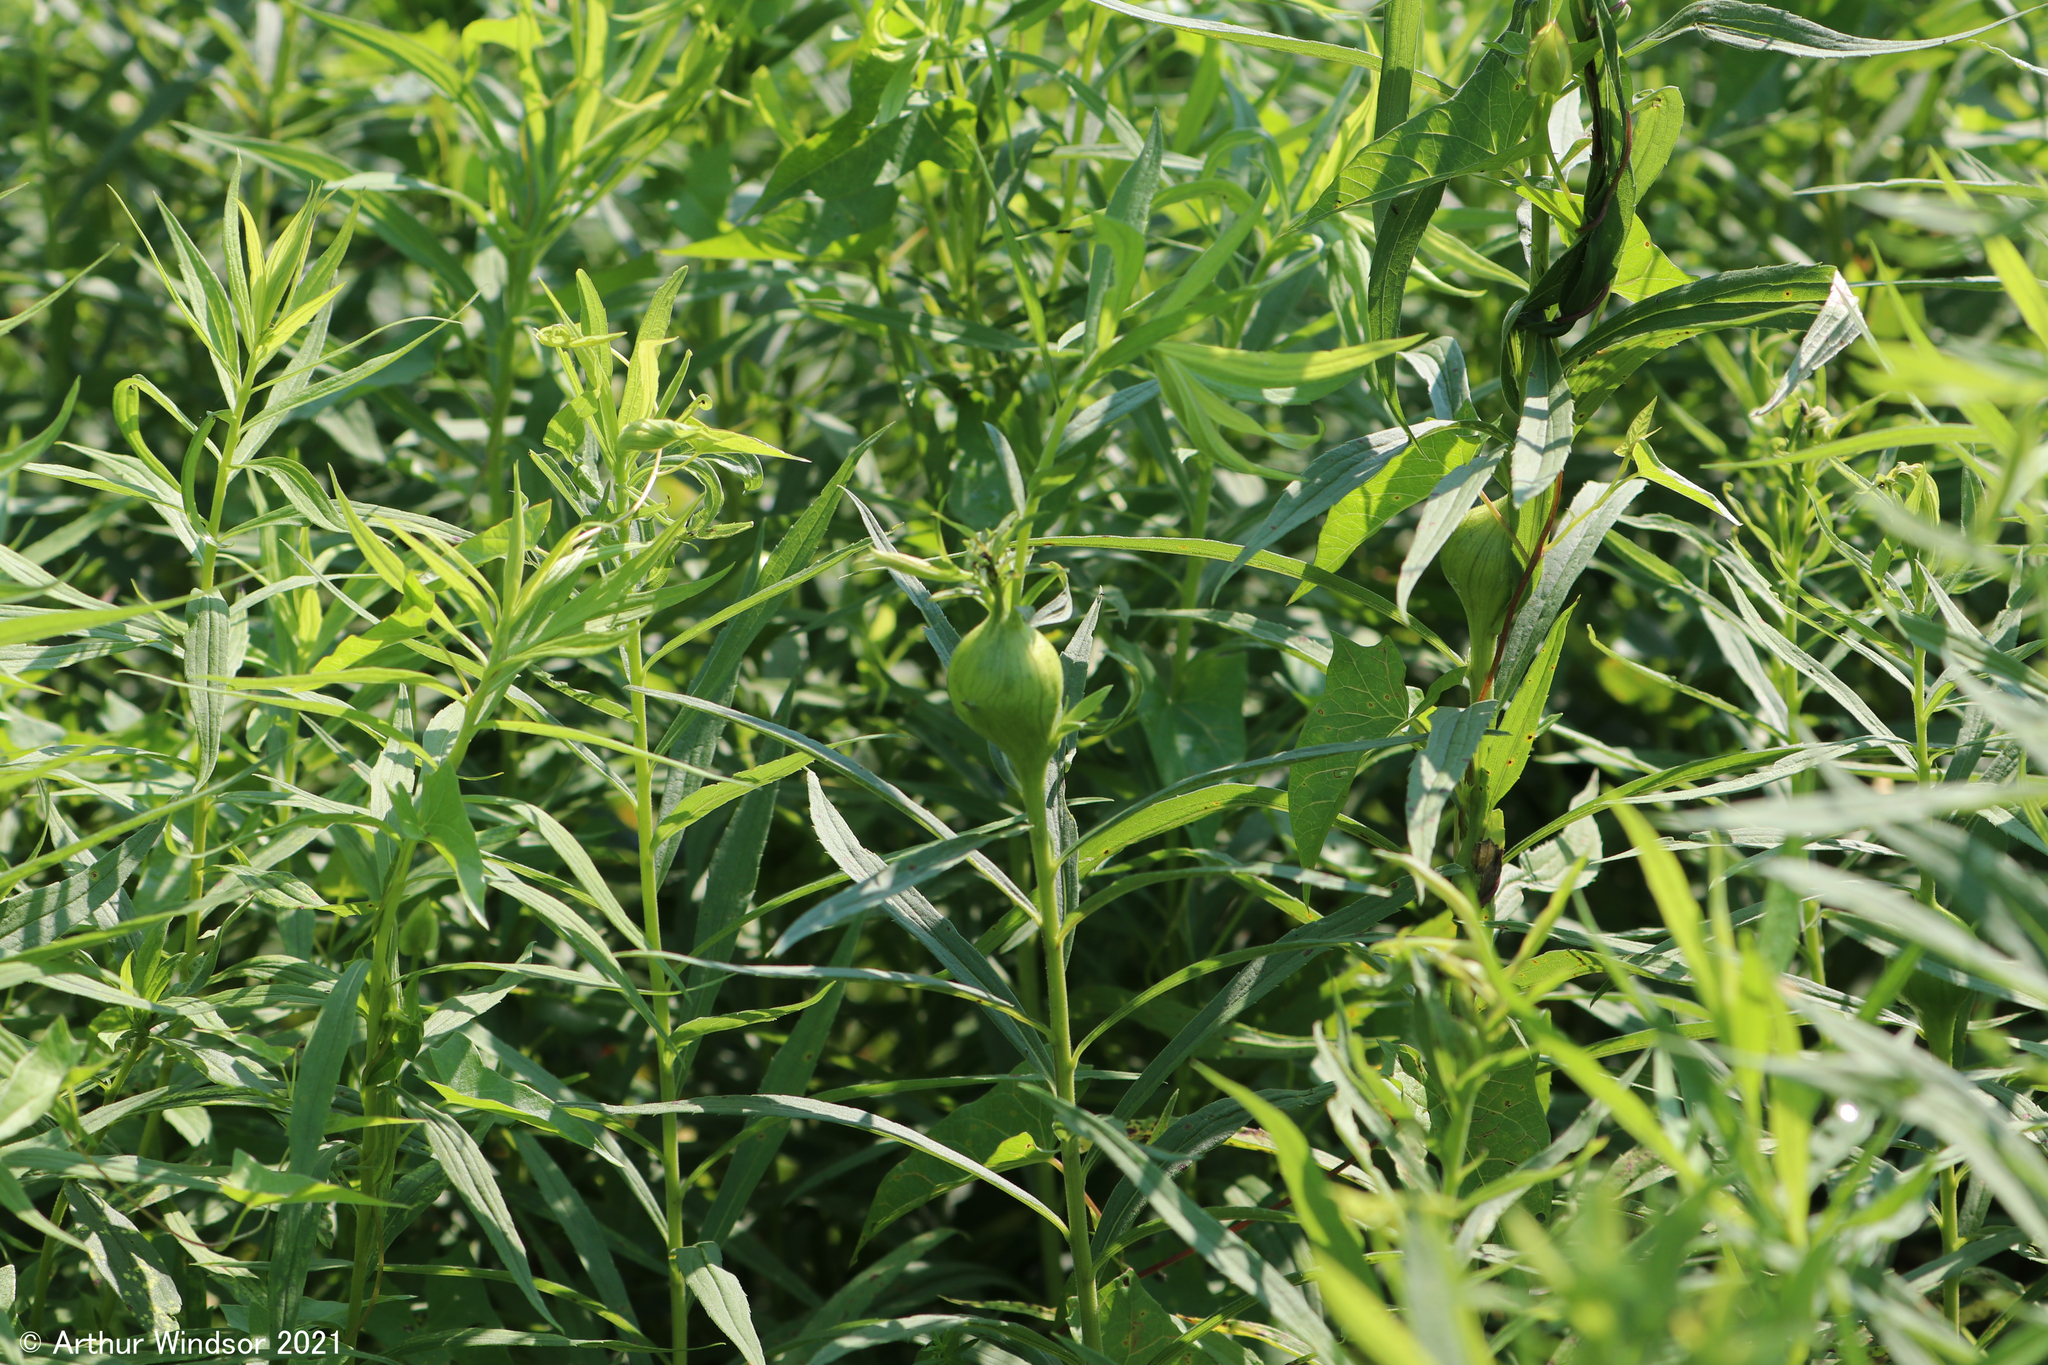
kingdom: Animalia
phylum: Arthropoda
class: Insecta
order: Diptera
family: Tephritidae
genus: Eurosta
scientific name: Eurosta solidaginis
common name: Goldenrod gall fly
